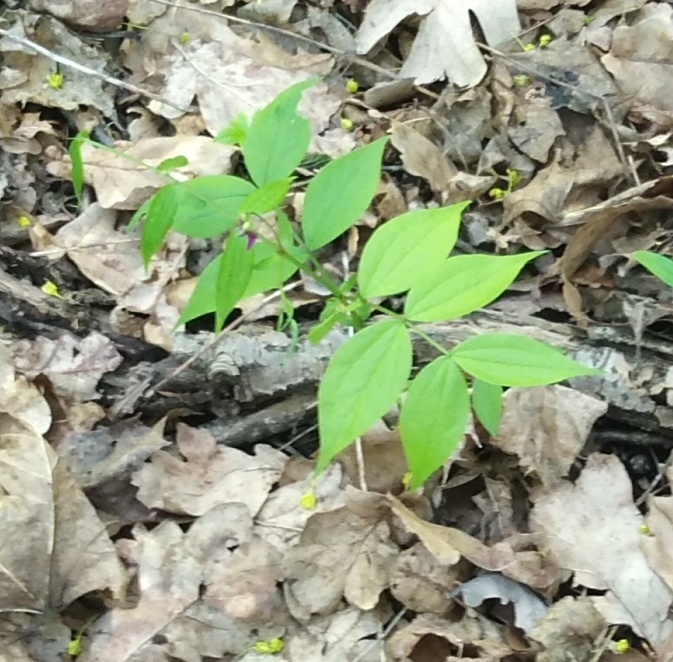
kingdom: Plantae
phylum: Tracheophyta
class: Magnoliopsida
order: Fabales
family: Fabaceae
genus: Lathyrus
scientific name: Lathyrus vernus
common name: Spring pea
